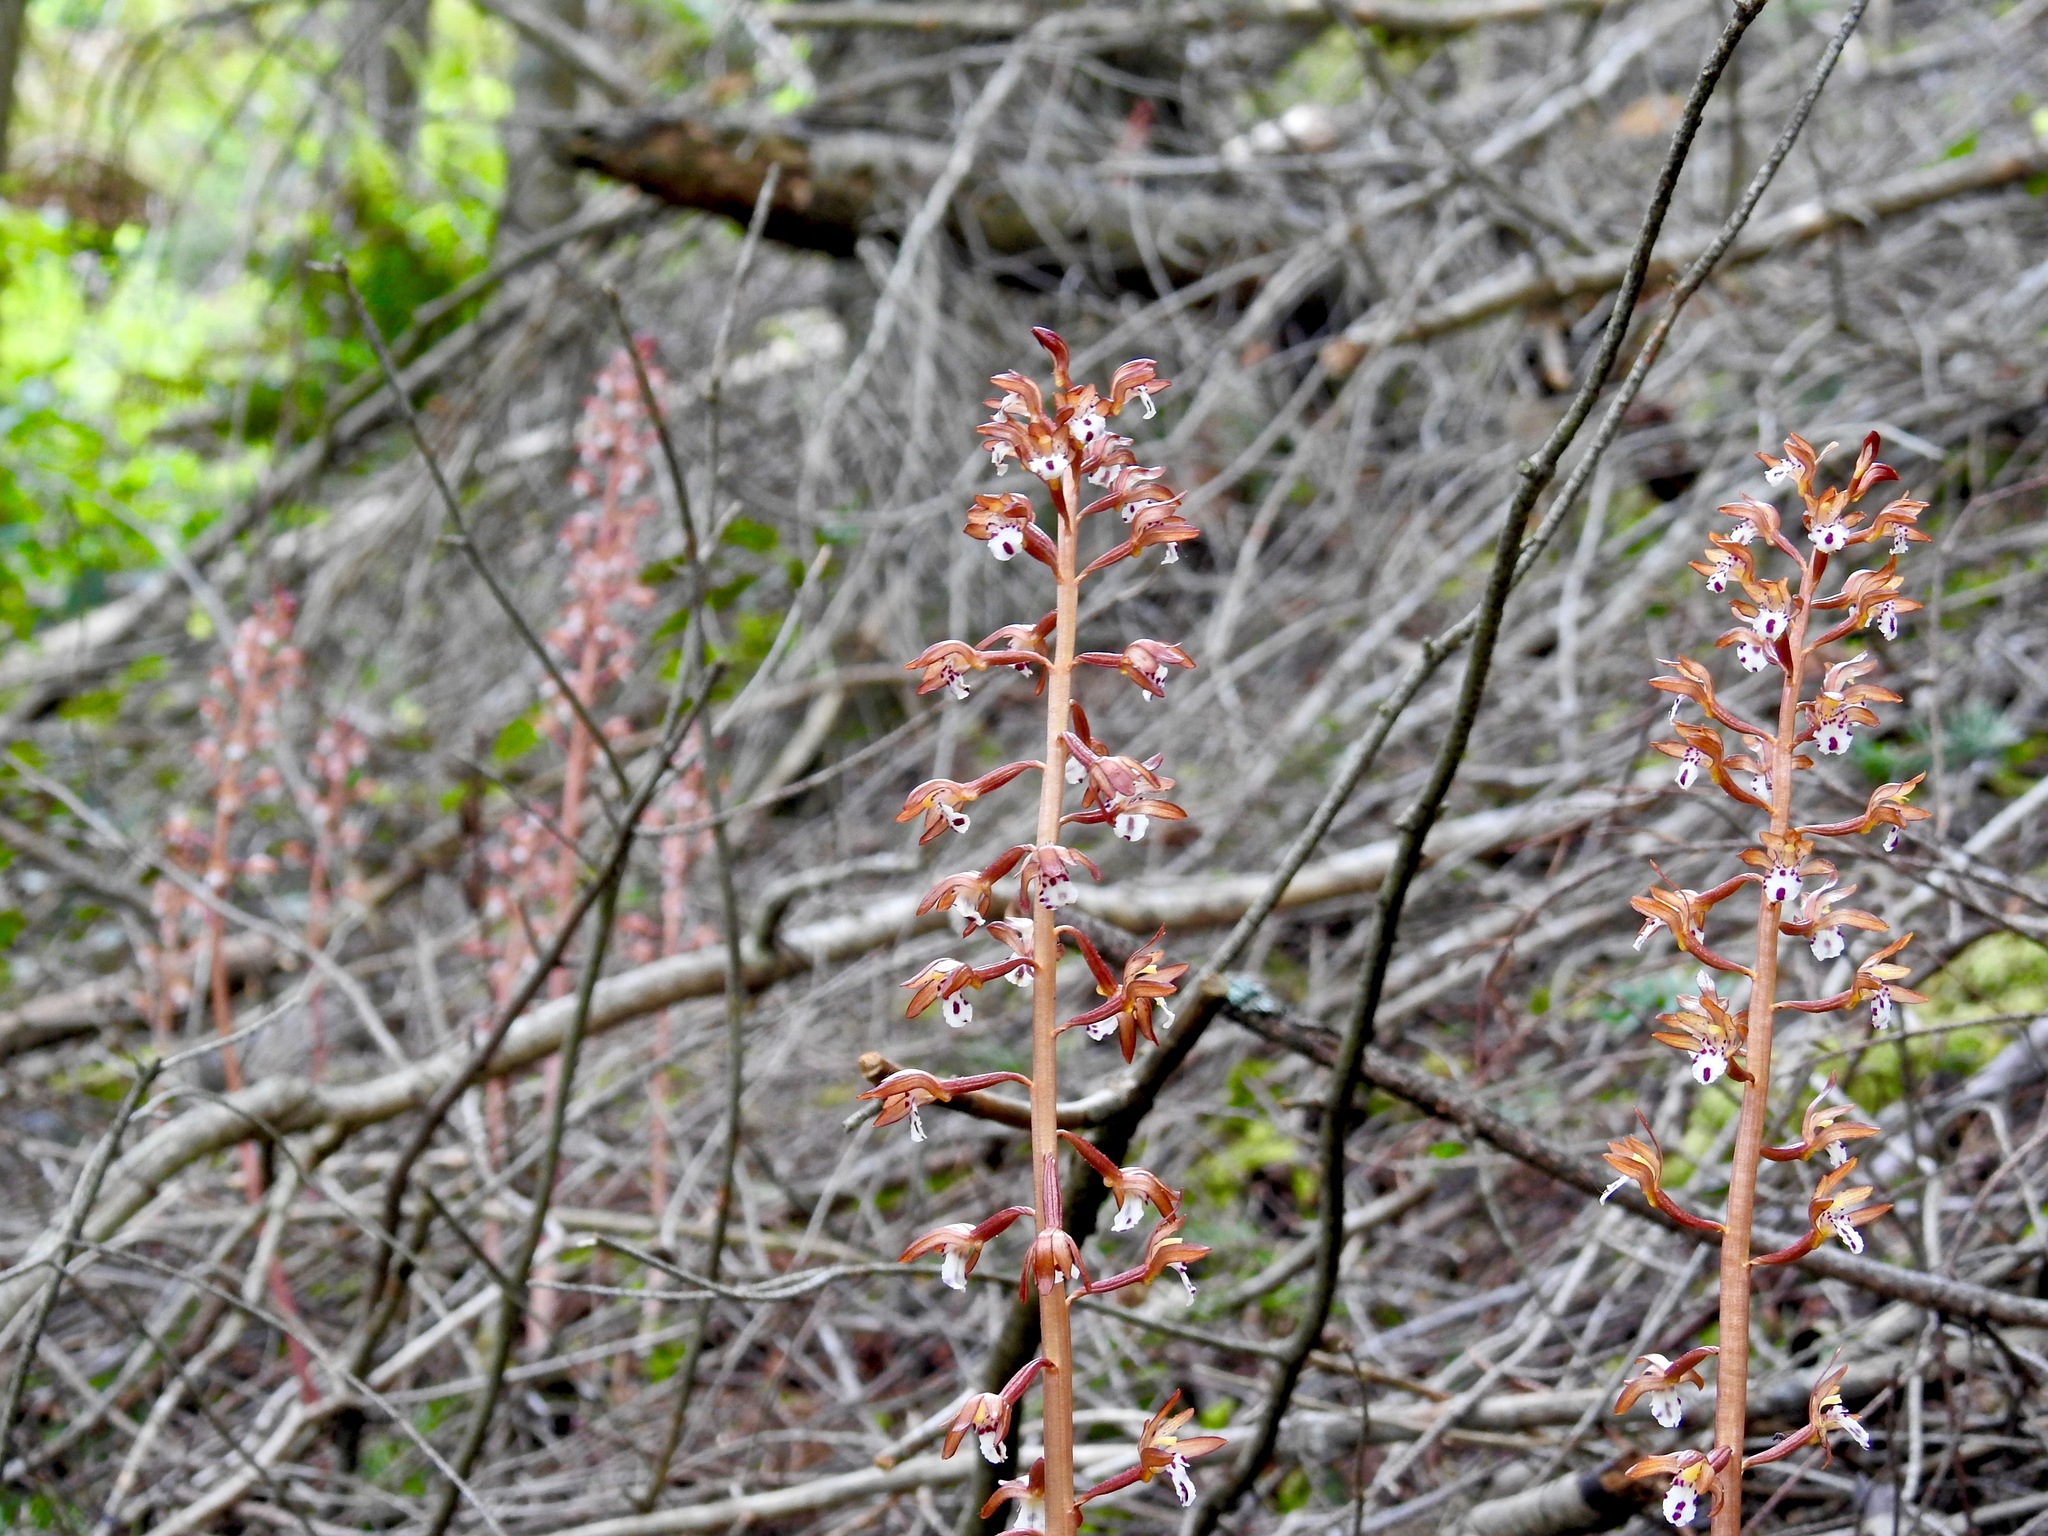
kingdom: Plantae
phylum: Tracheophyta
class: Liliopsida
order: Asparagales
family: Orchidaceae
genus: Corallorhiza
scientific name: Corallorhiza maculata
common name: Spotted coralroot
